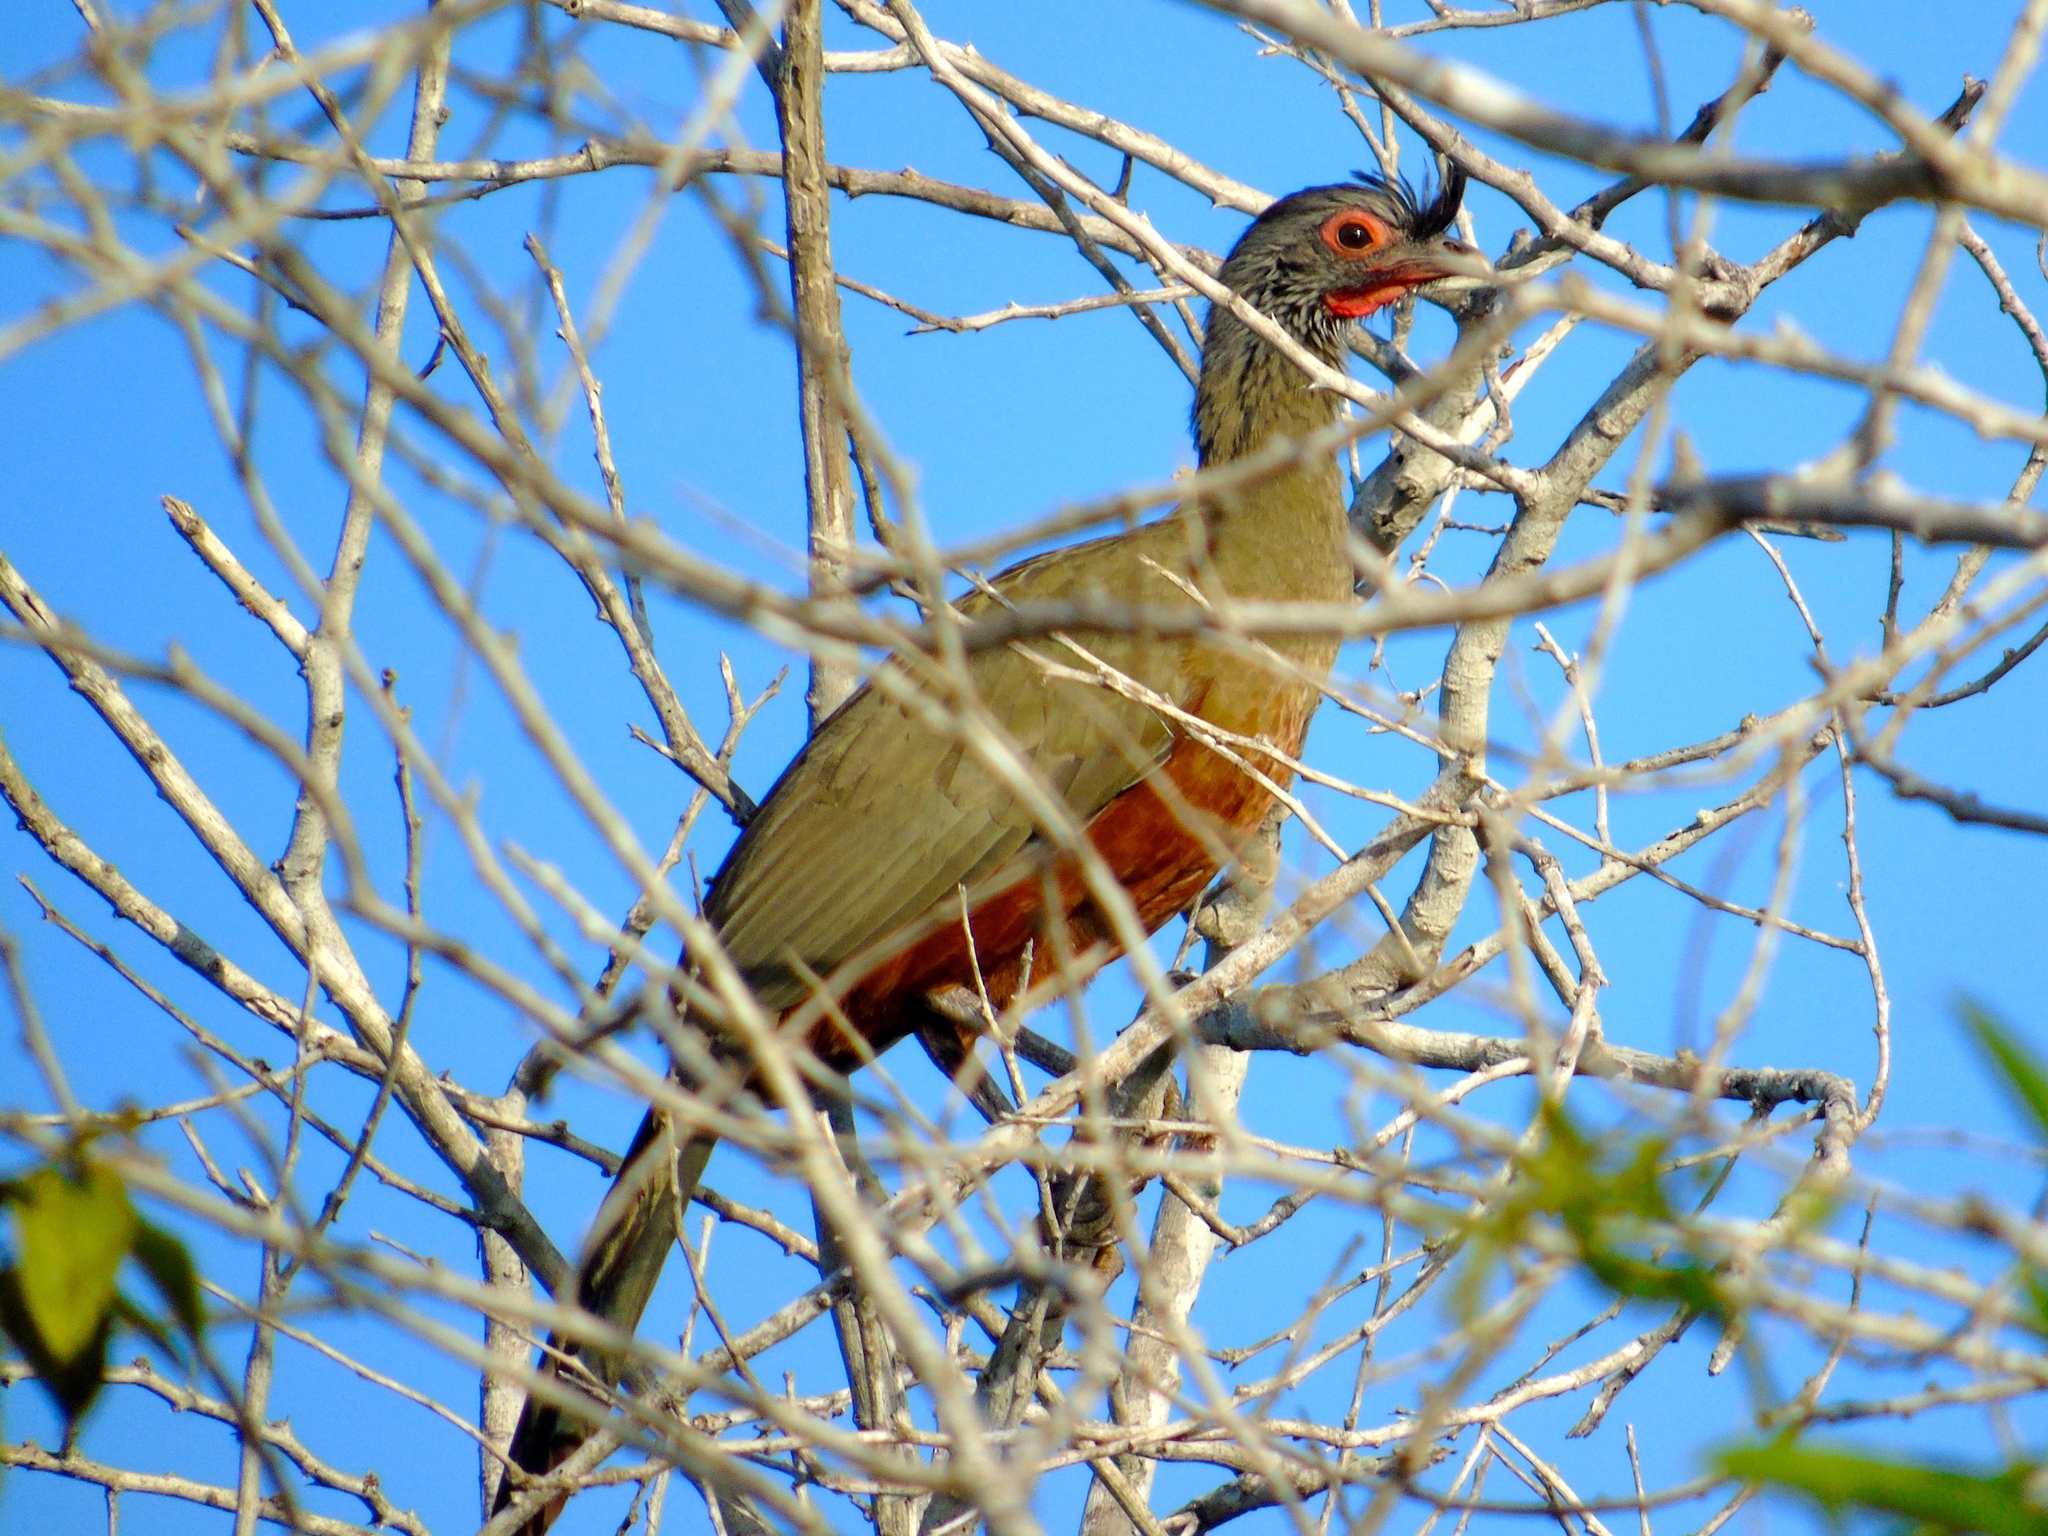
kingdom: Animalia
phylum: Chordata
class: Aves
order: Galliformes
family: Cracidae
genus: Ortalis
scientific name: Ortalis wagleri
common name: Rufous-bellied chachalaca
